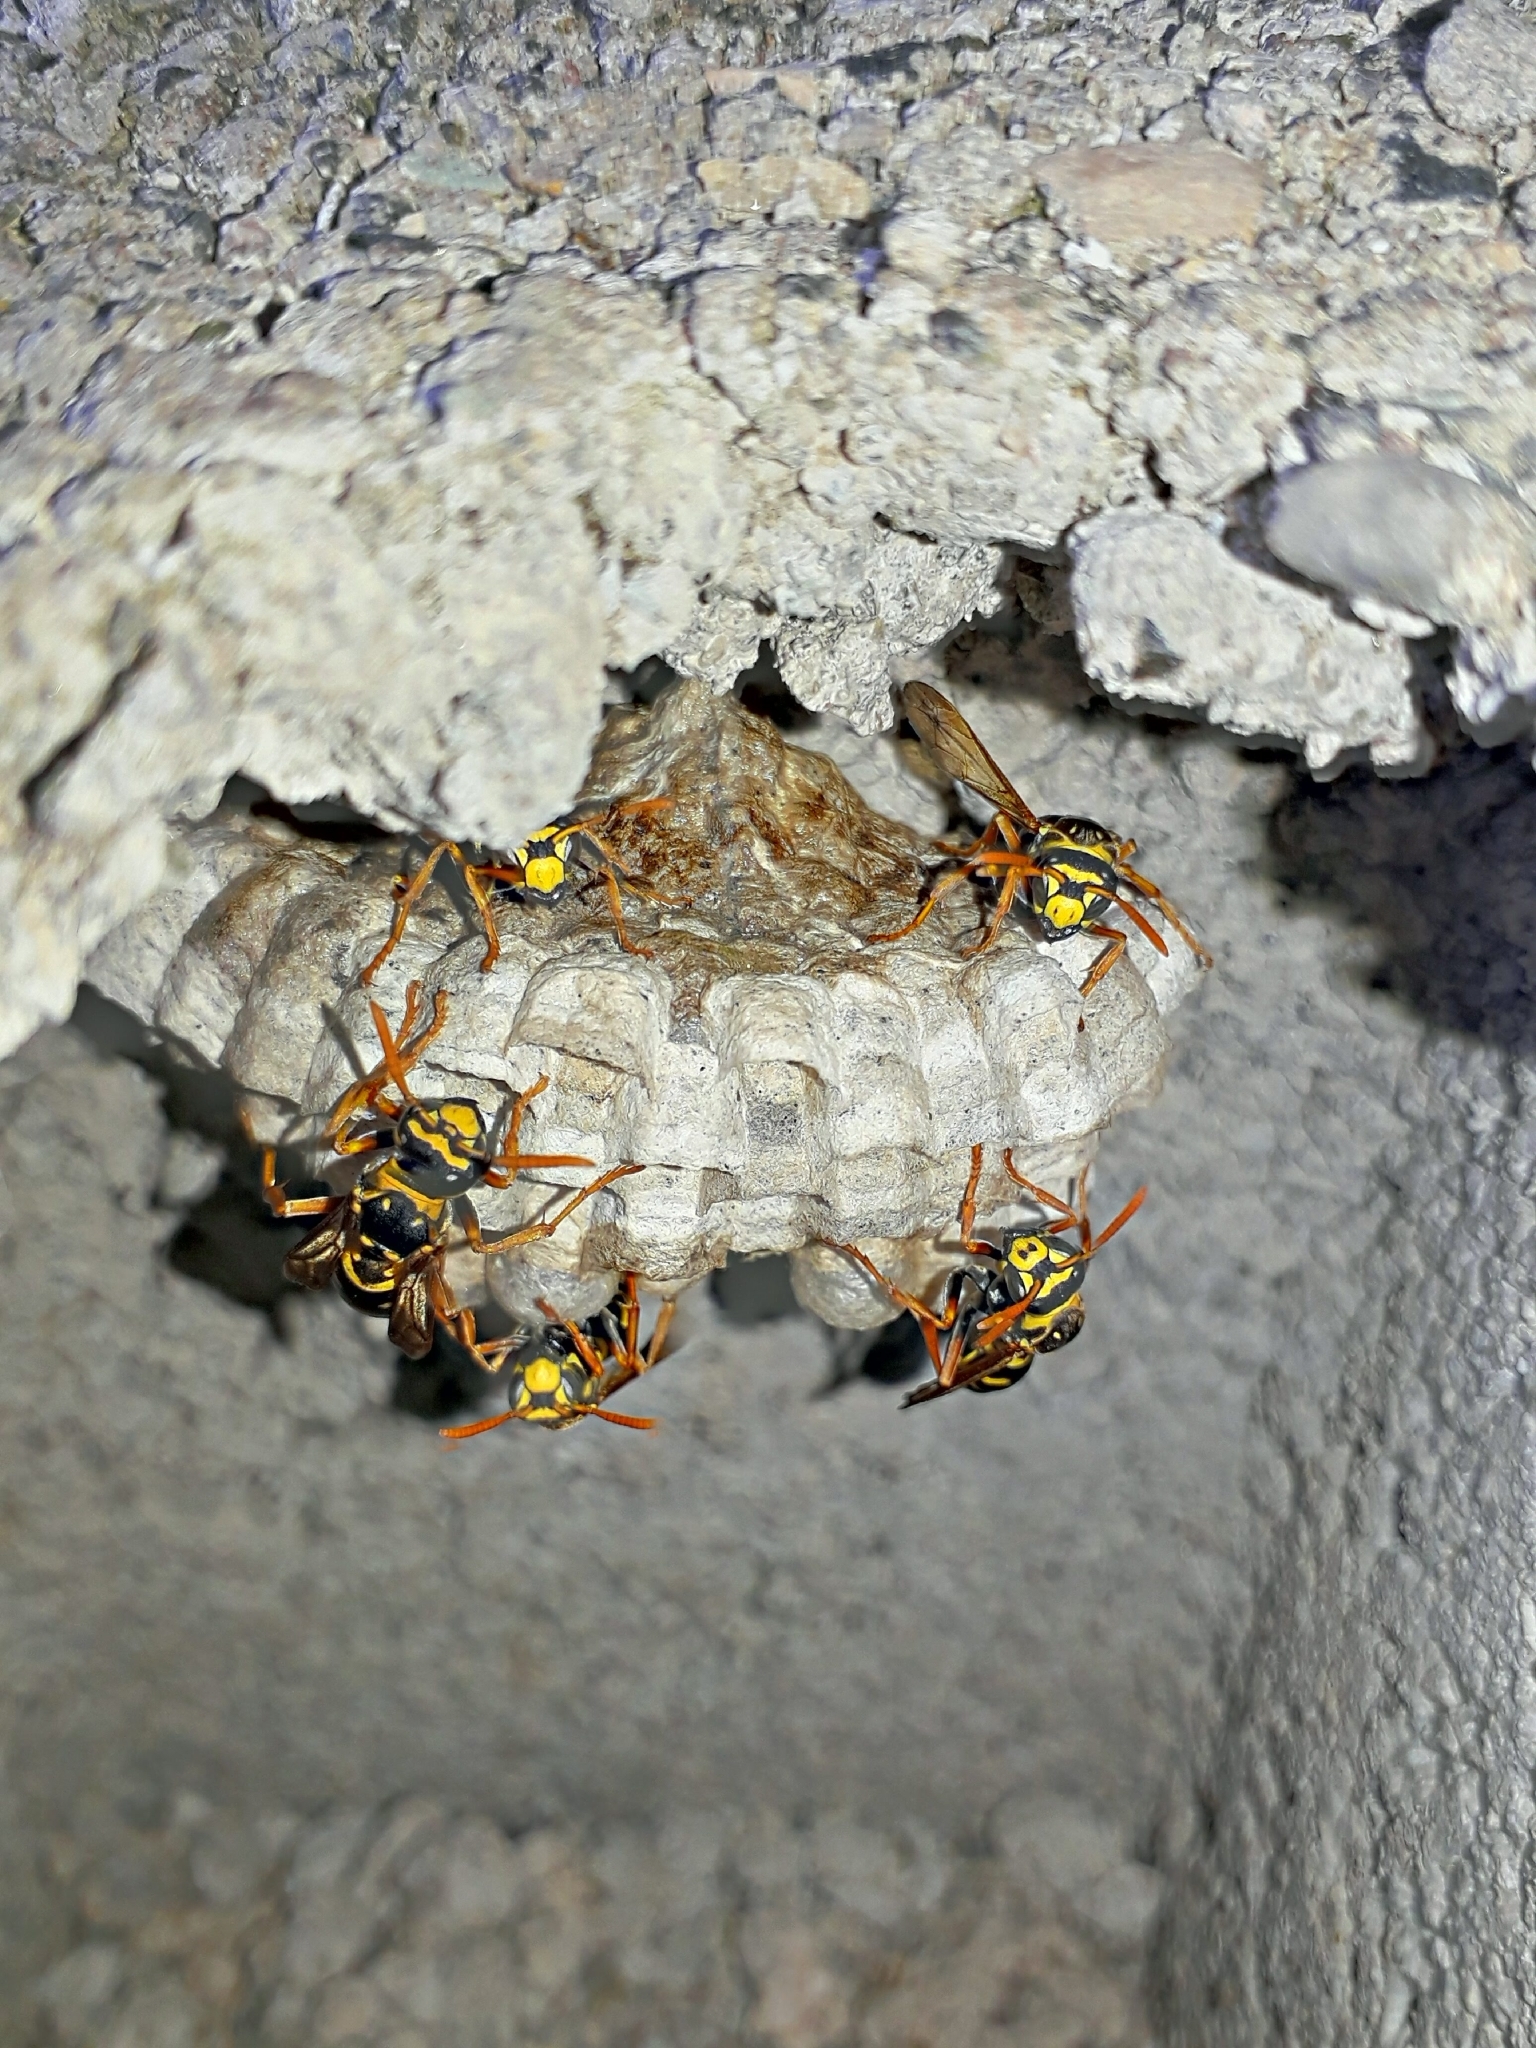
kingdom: Animalia
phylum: Arthropoda
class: Insecta
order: Hymenoptera
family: Eumenidae
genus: Polistes
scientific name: Polistes dominula
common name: Paper wasp
